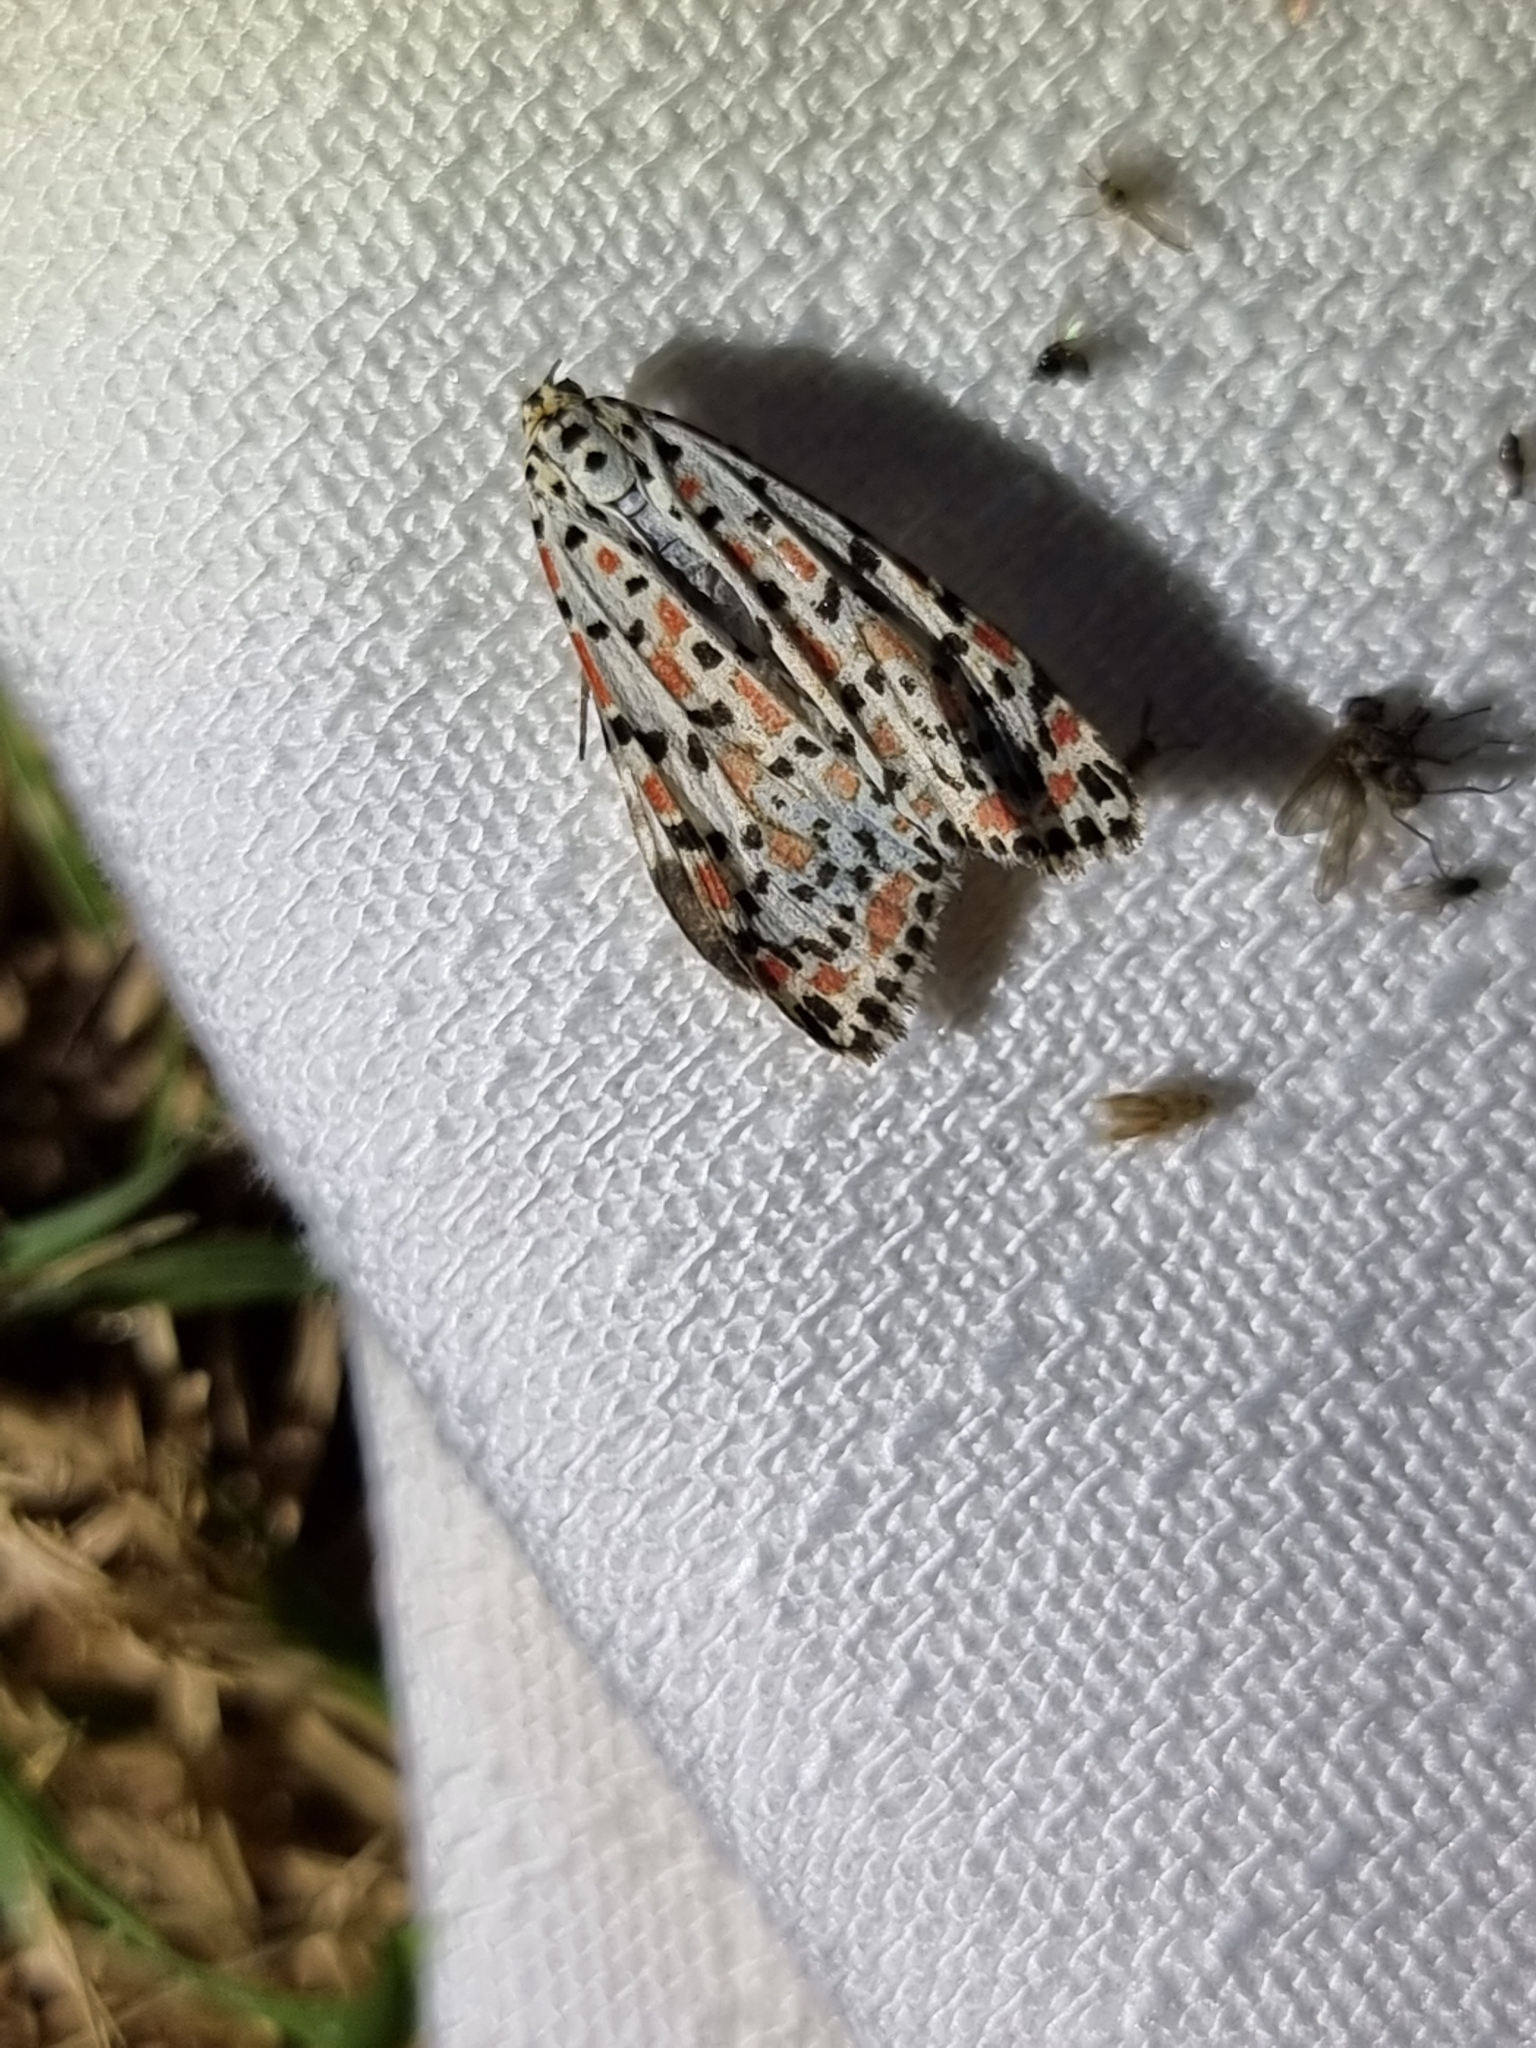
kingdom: Animalia
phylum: Arthropoda
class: Insecta
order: Lepidoptera
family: Erebidae
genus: Utetheisa
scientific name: Utetheisa pulchelloides
